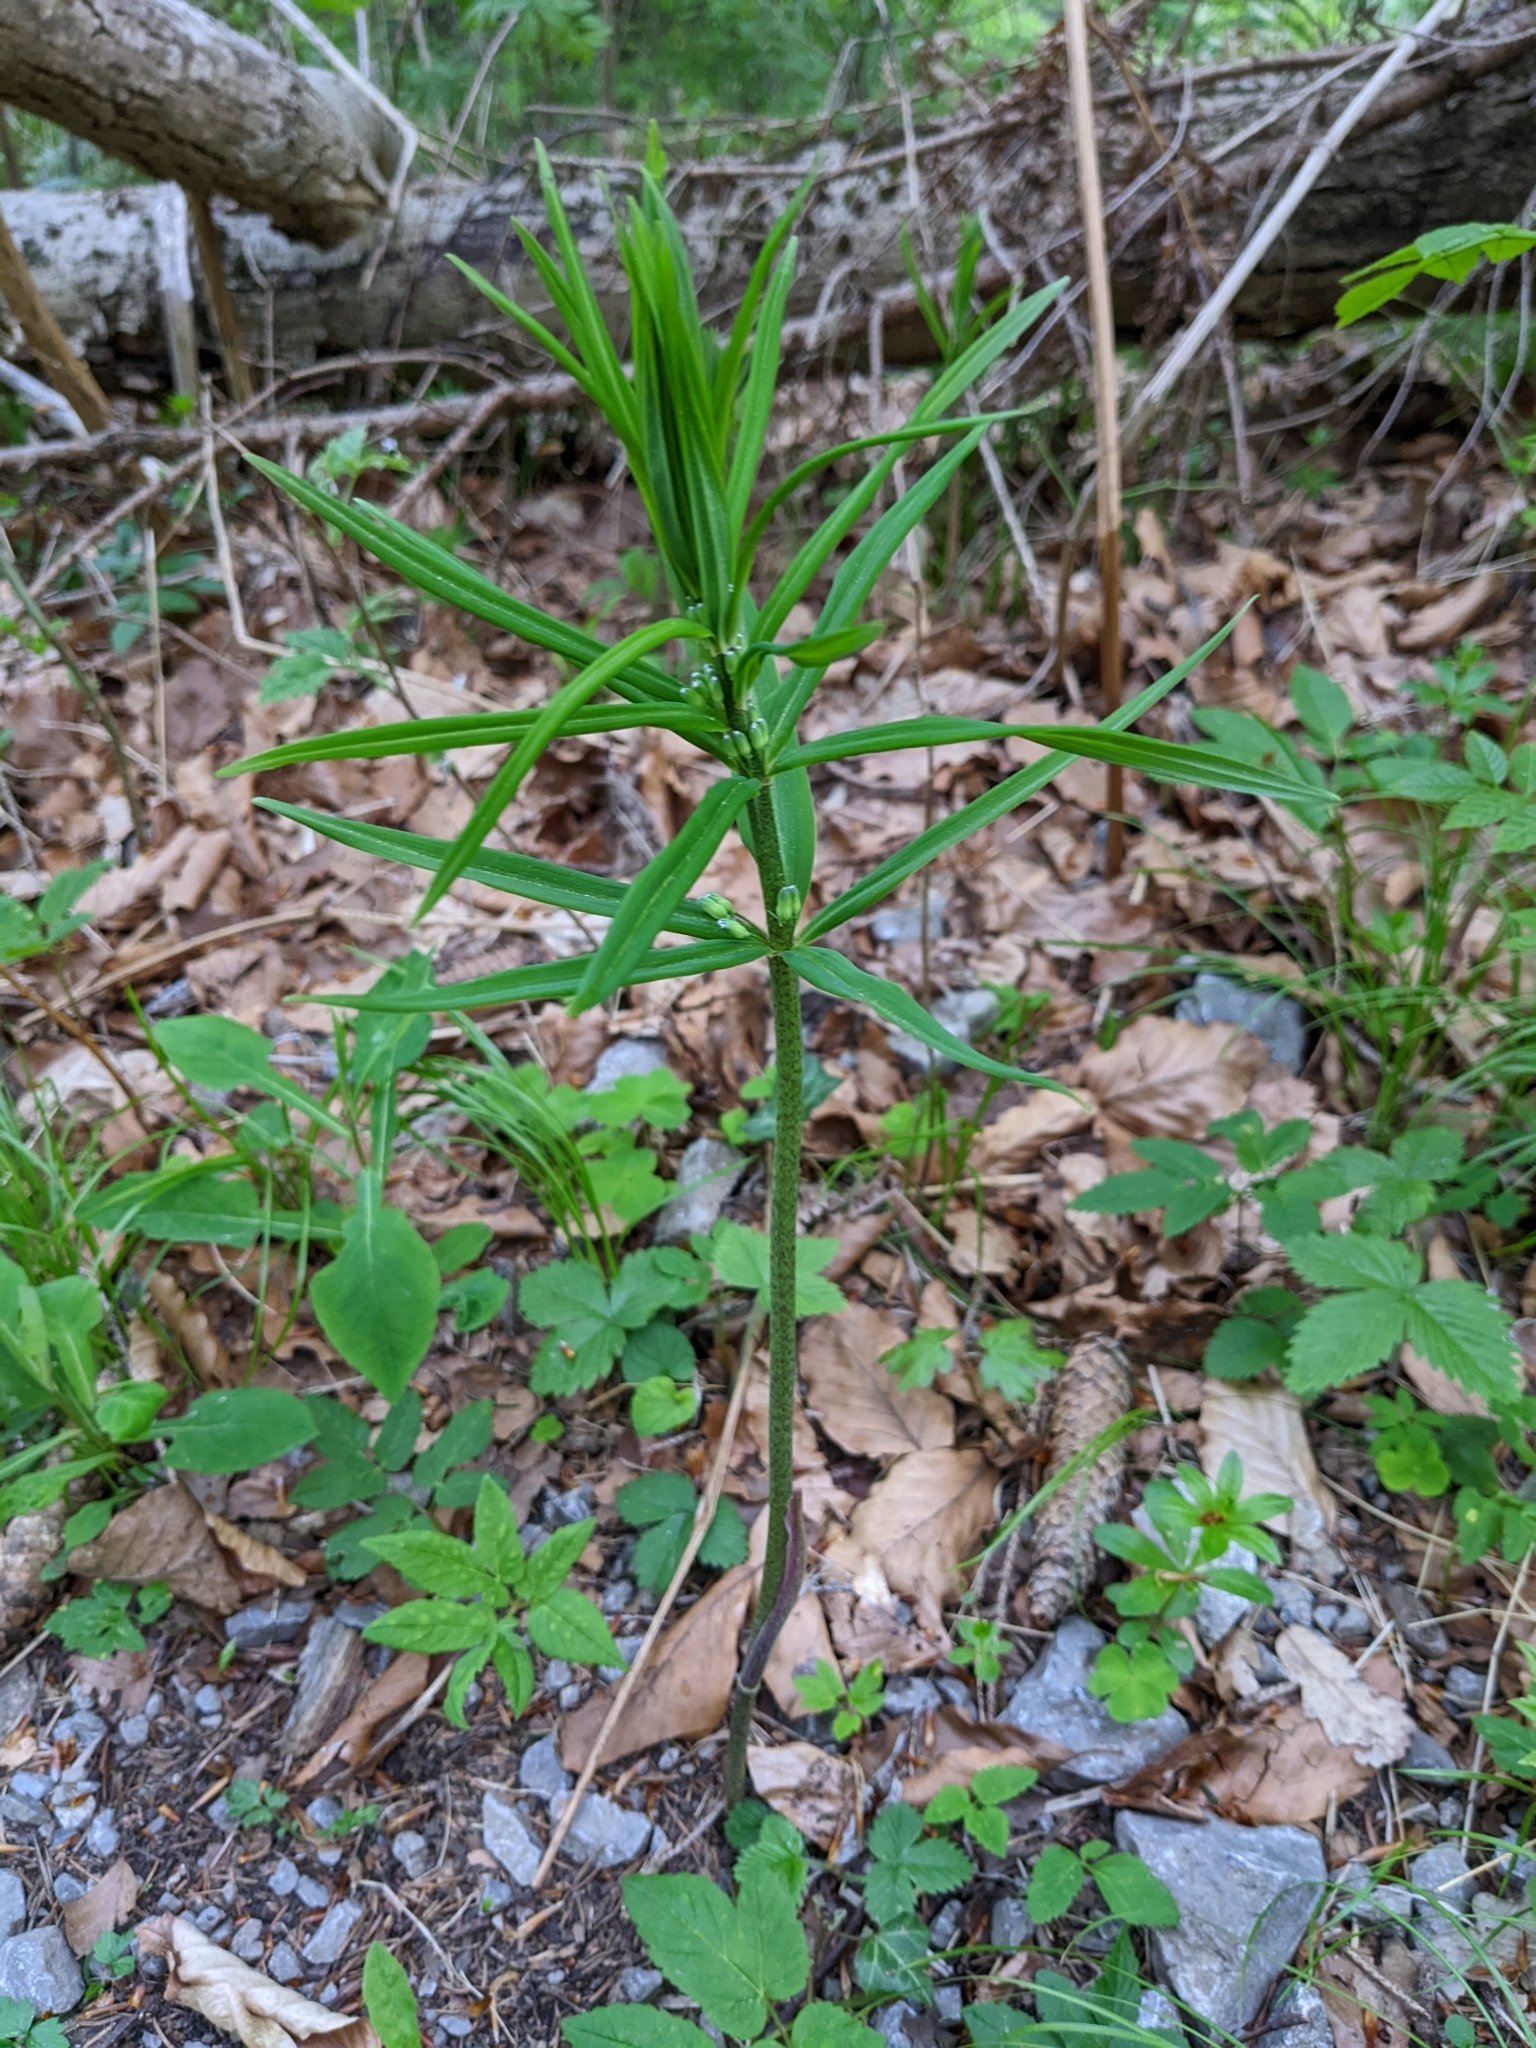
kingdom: Plantae
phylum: Tracheophyta
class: Liliopsida
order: Asparagales
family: Asparagaceae
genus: Polygonatum
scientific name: Polygonatum verticillatum
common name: Whorled solomon's-seal
